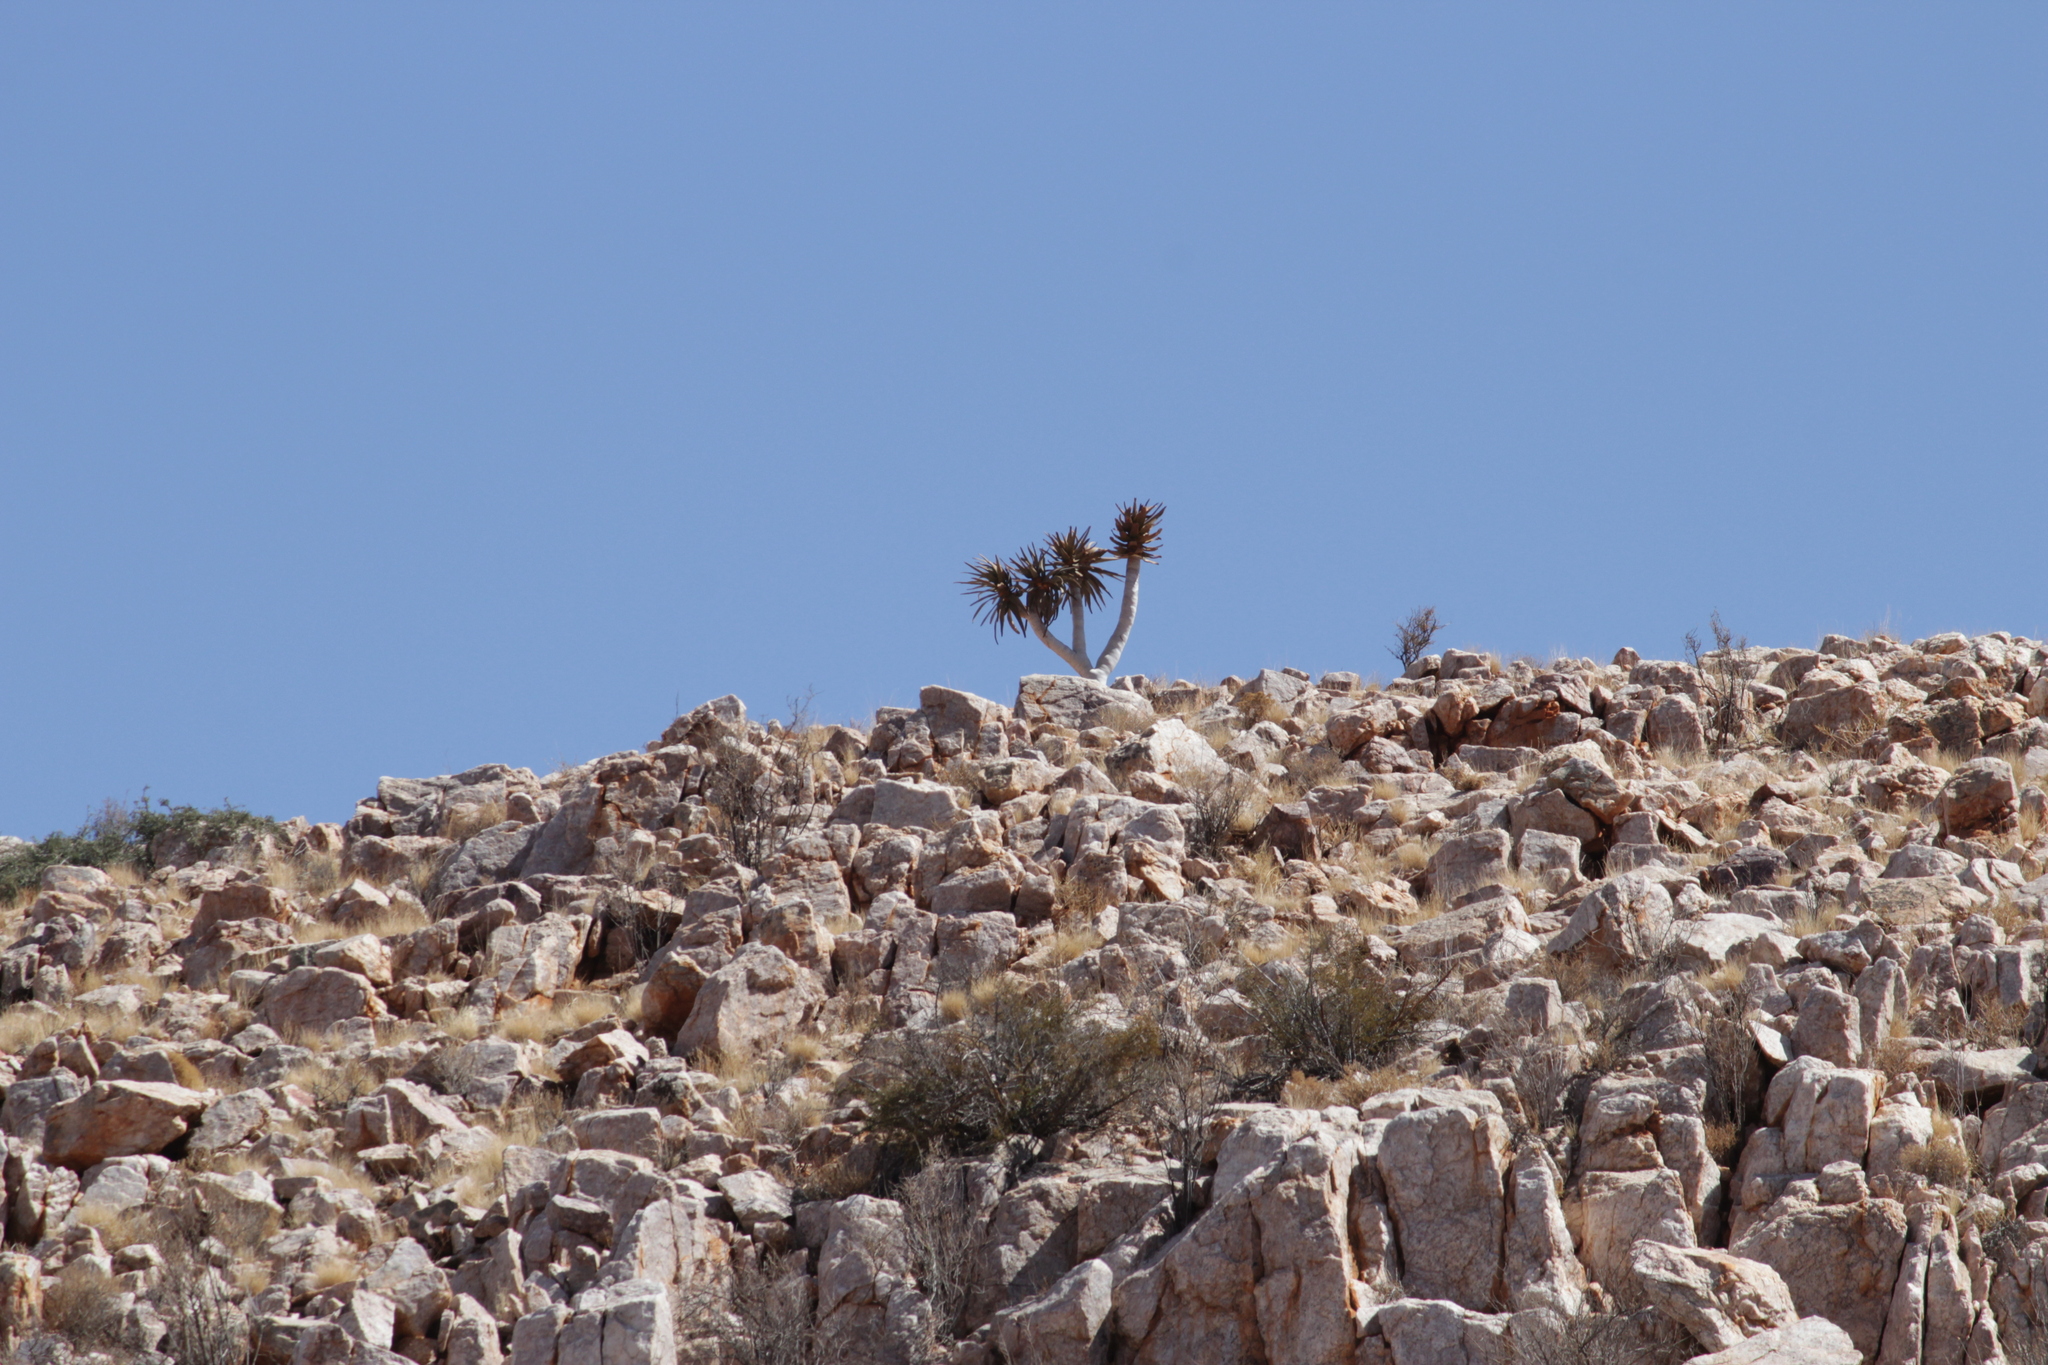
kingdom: Plantae
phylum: Tracheophyta
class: Liliopsida
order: Asparagales
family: Asphodelaceae
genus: Aloidendron
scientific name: Aloidendron dichotomum
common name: Quiver tree
